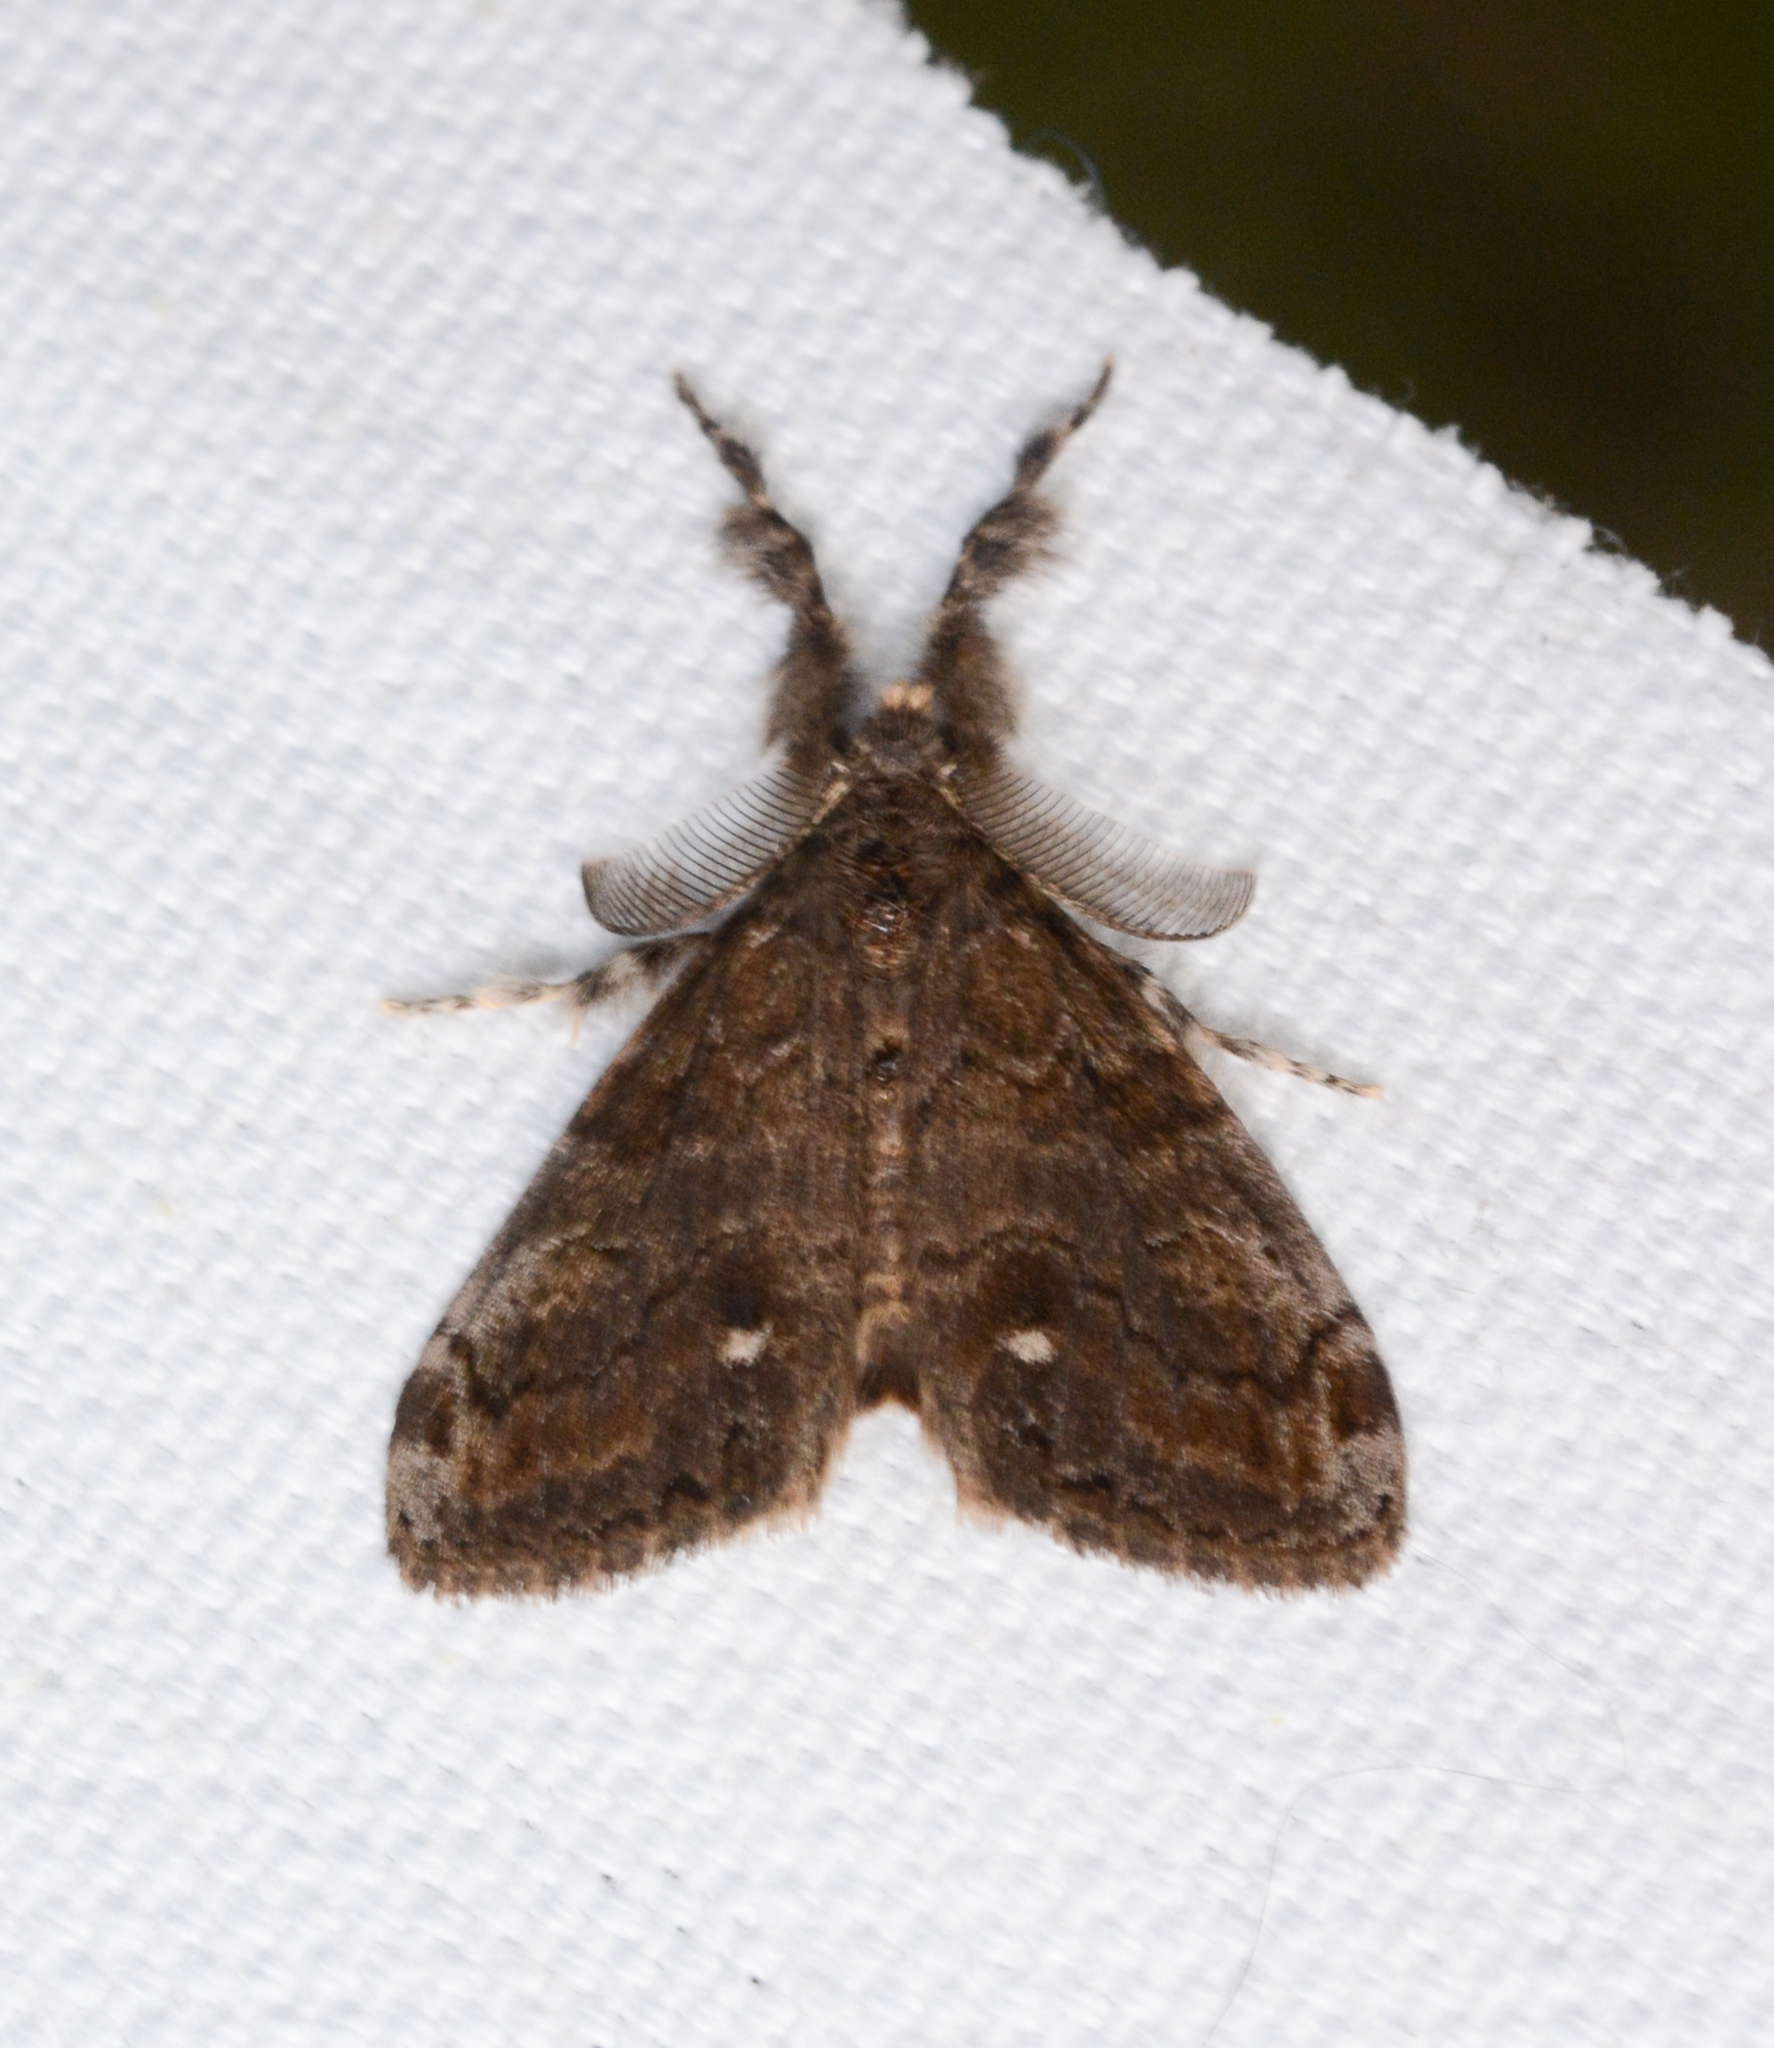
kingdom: Animalia
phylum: Arthropoda
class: Insecta
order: Lepidoptera
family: Erebidae
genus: Orgyia
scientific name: Orgyia leucostigma
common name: White-marked tussock moth
